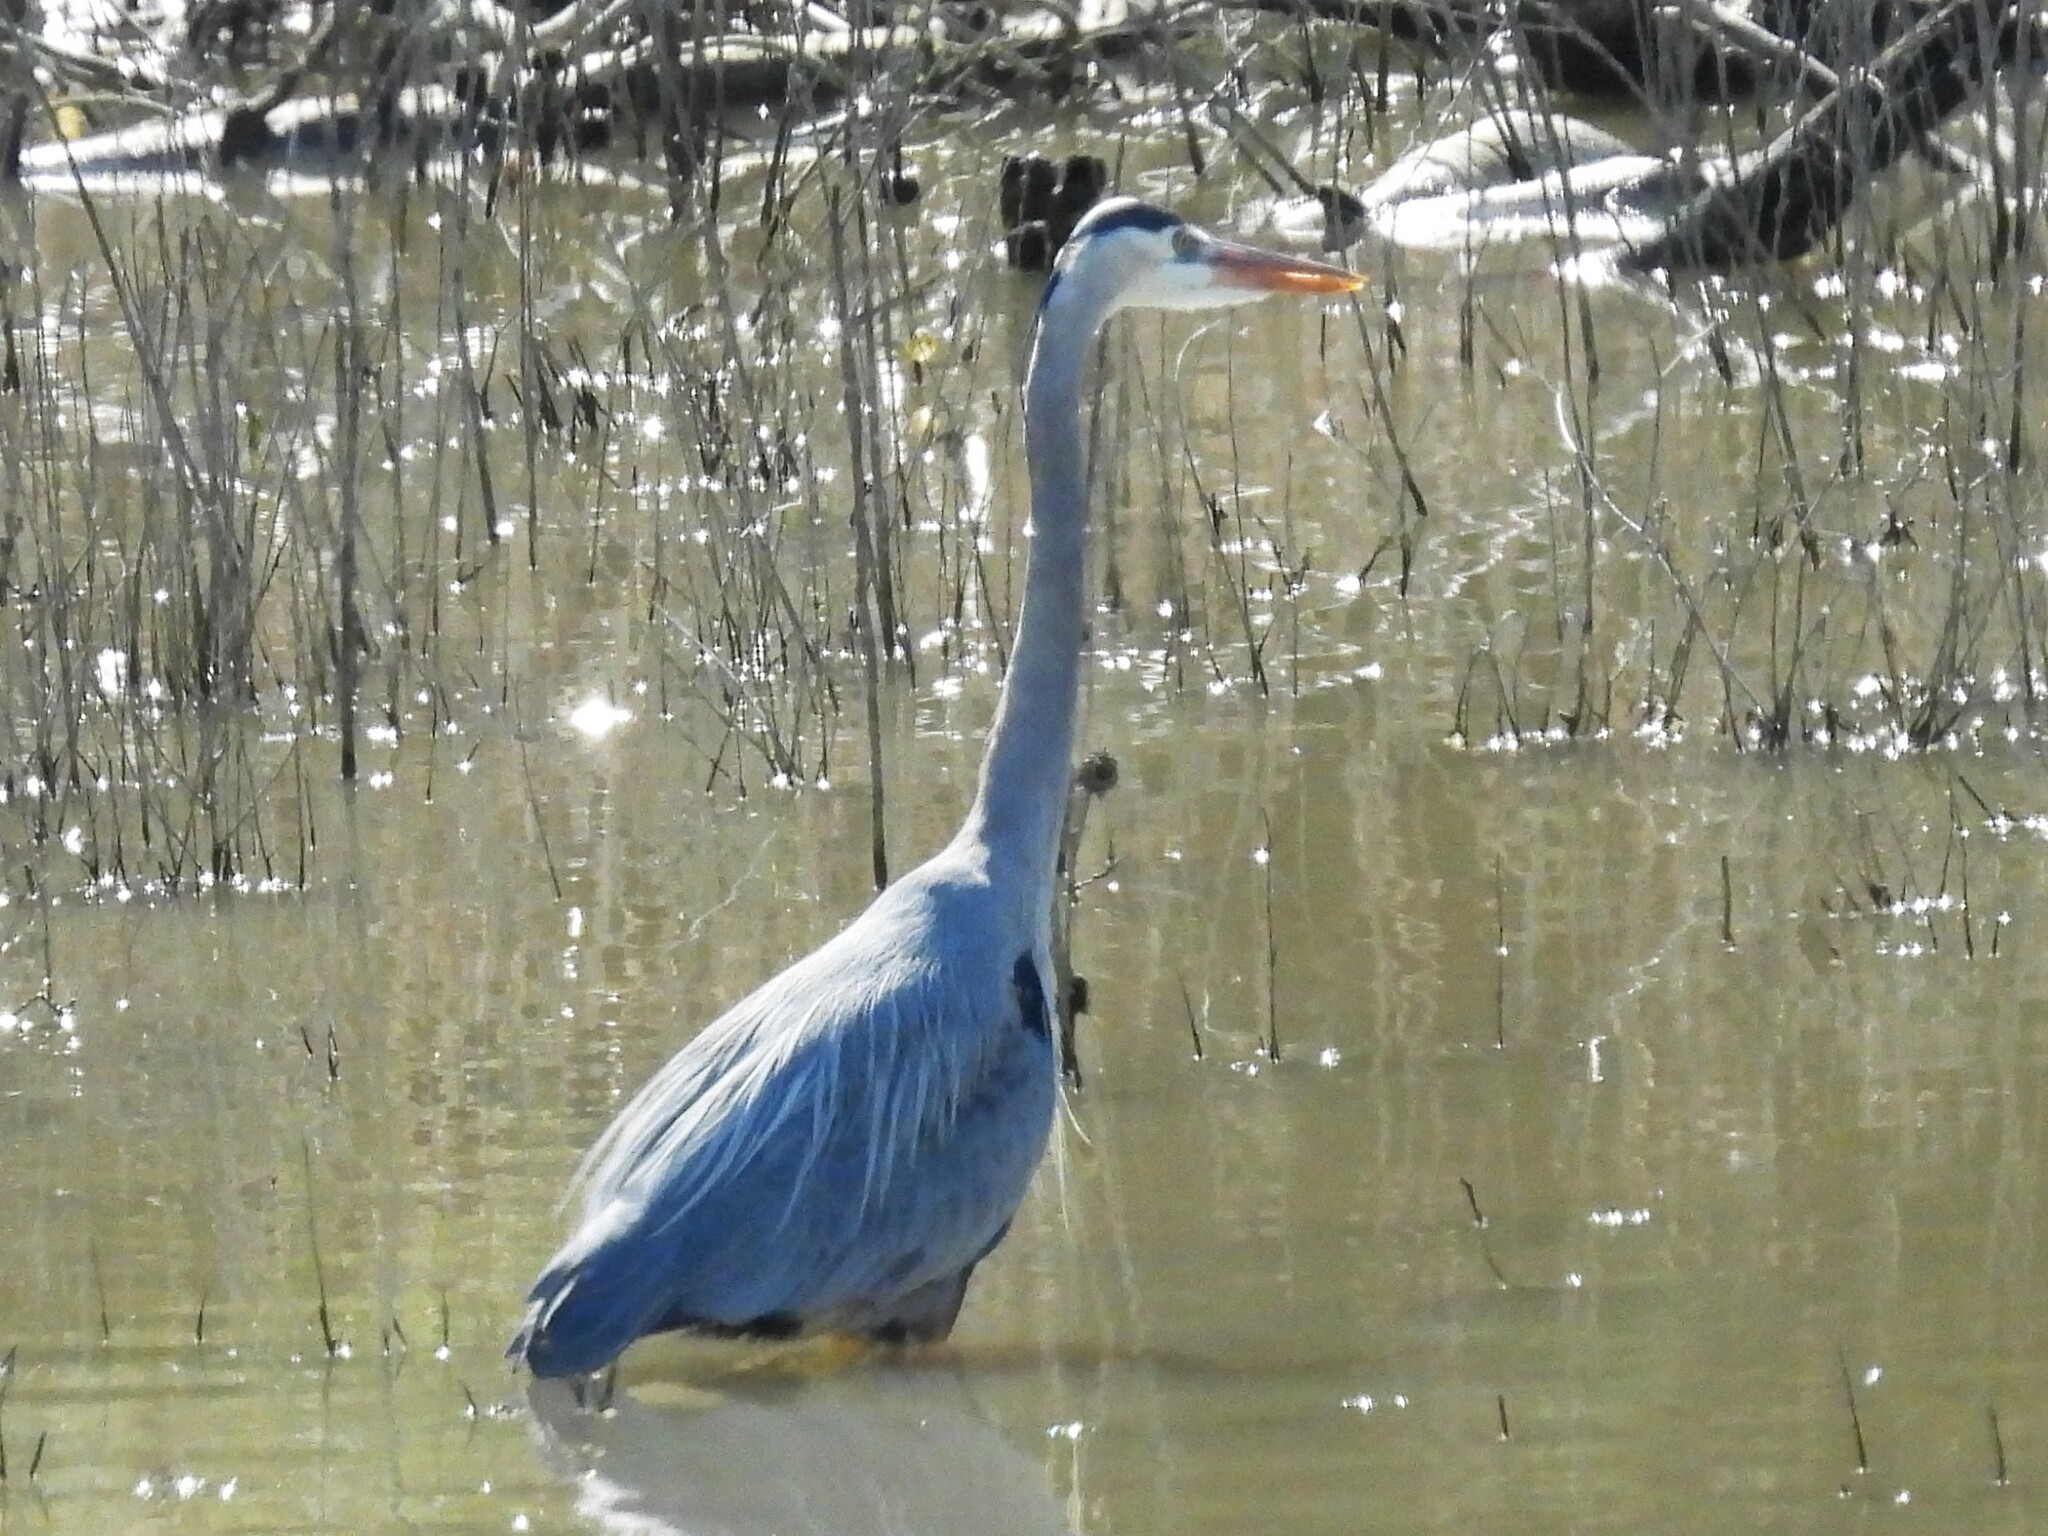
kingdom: Animalia
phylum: Chordata
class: Aves
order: Pelecaniformes
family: Ardeidae
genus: Ardea
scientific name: Ardea herodias
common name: Great blue heron
